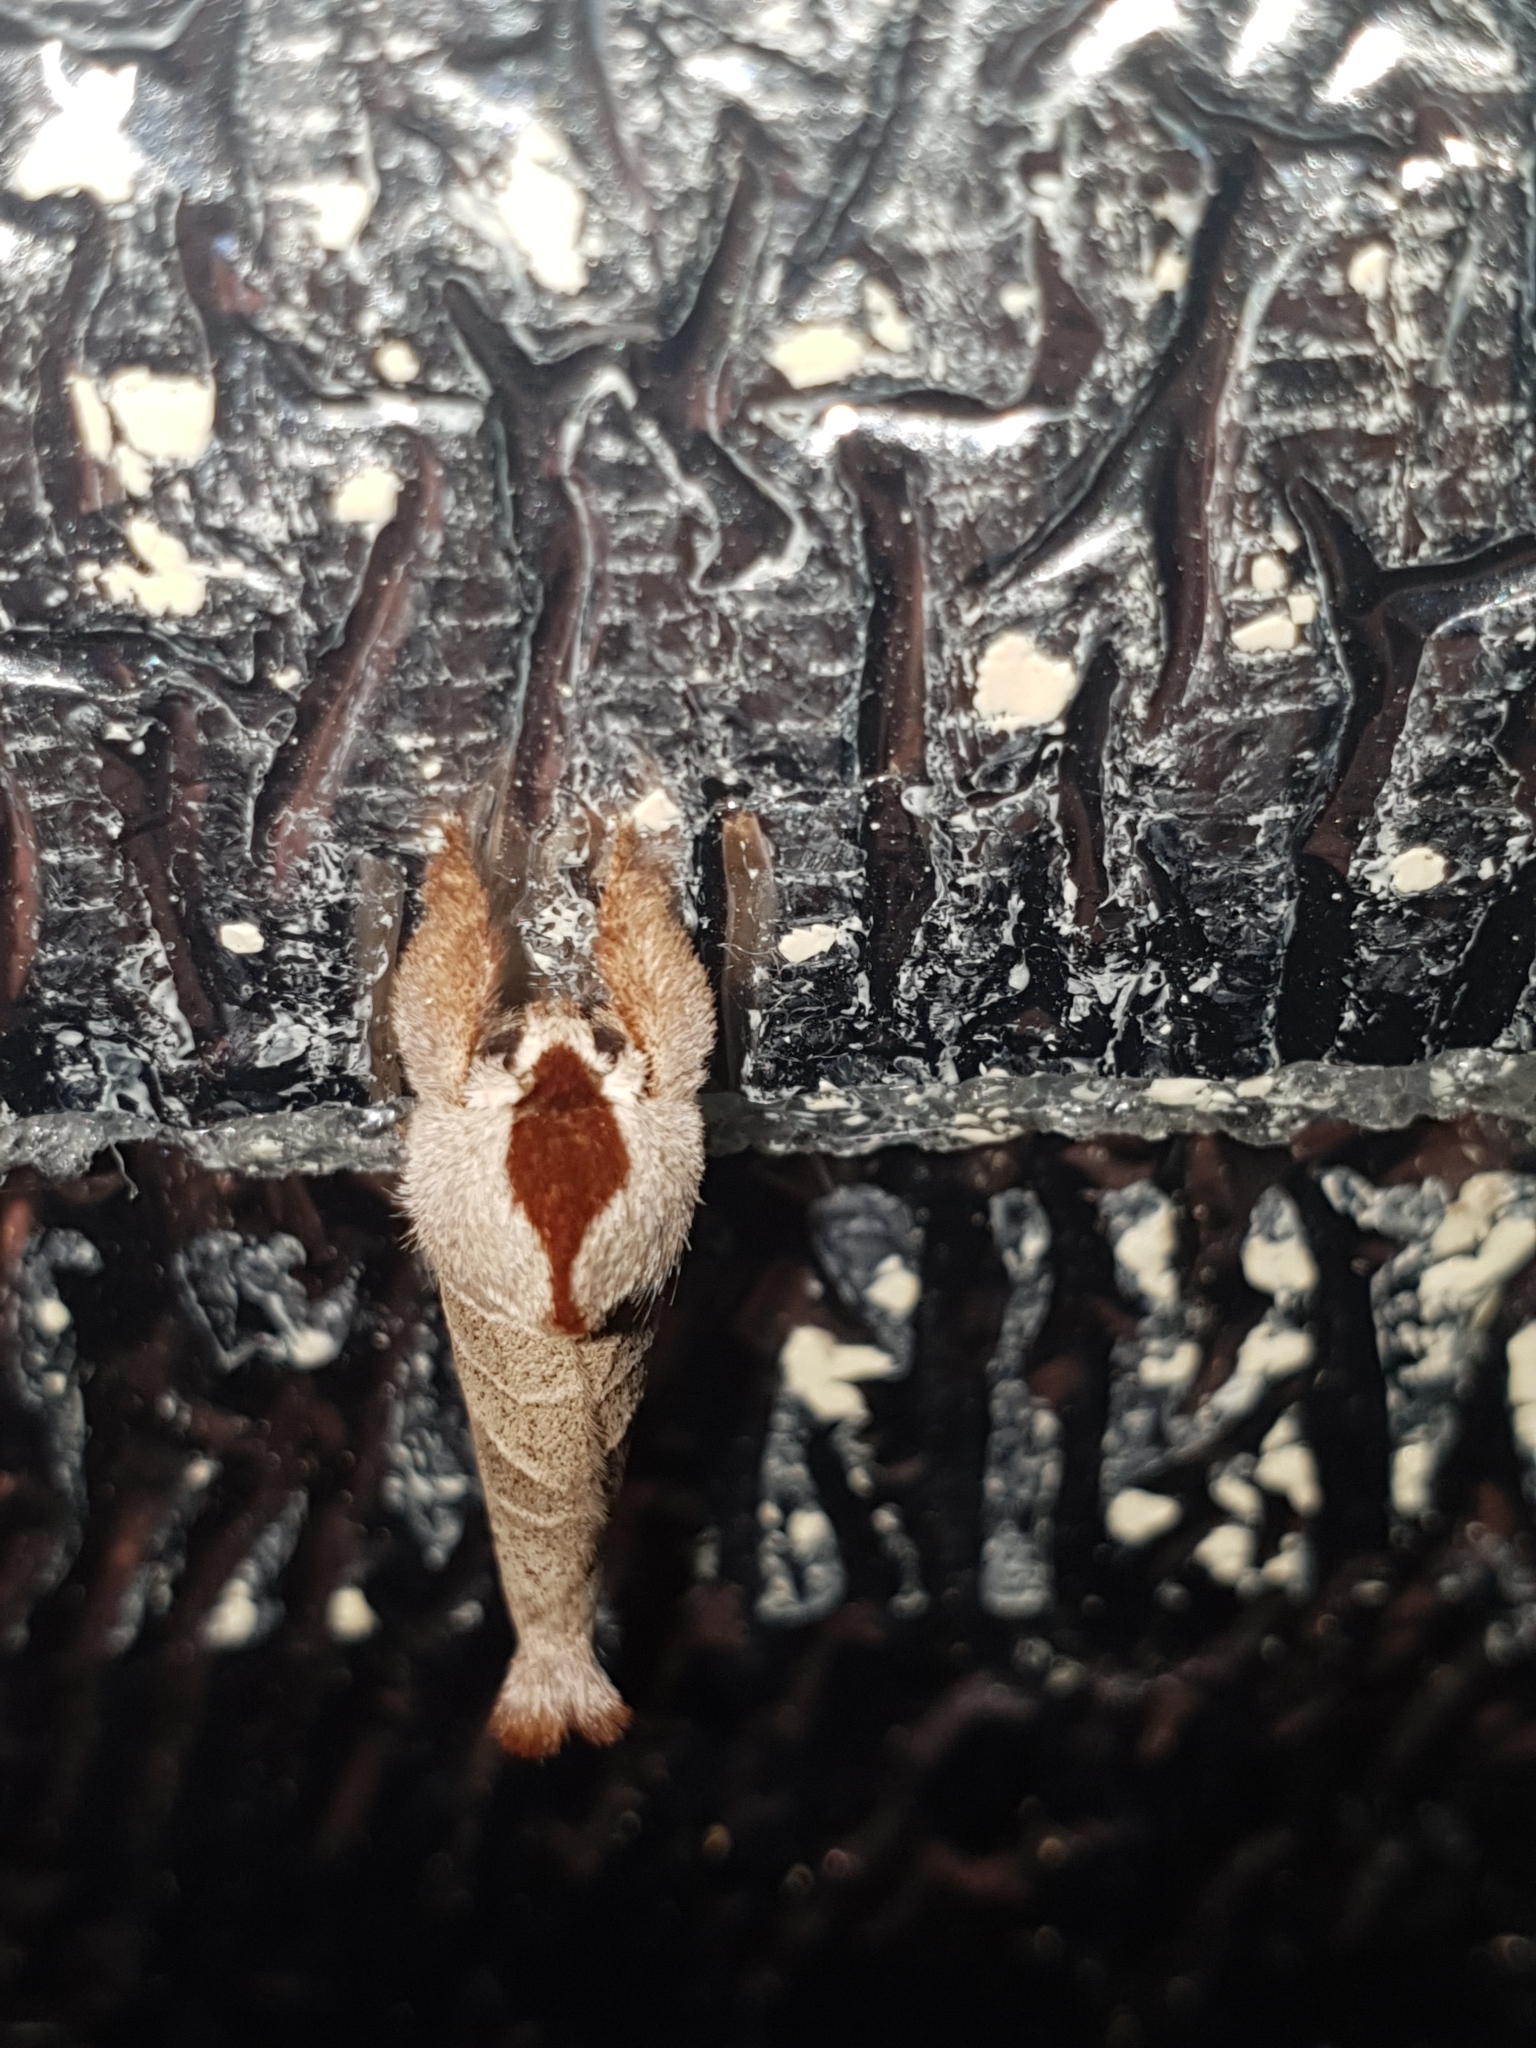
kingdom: Animalia
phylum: Arthropoda
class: Insecta
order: Lepidoptera
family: Notodontidae
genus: Clostera
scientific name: Clostera curtula
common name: Chocolate-tip
